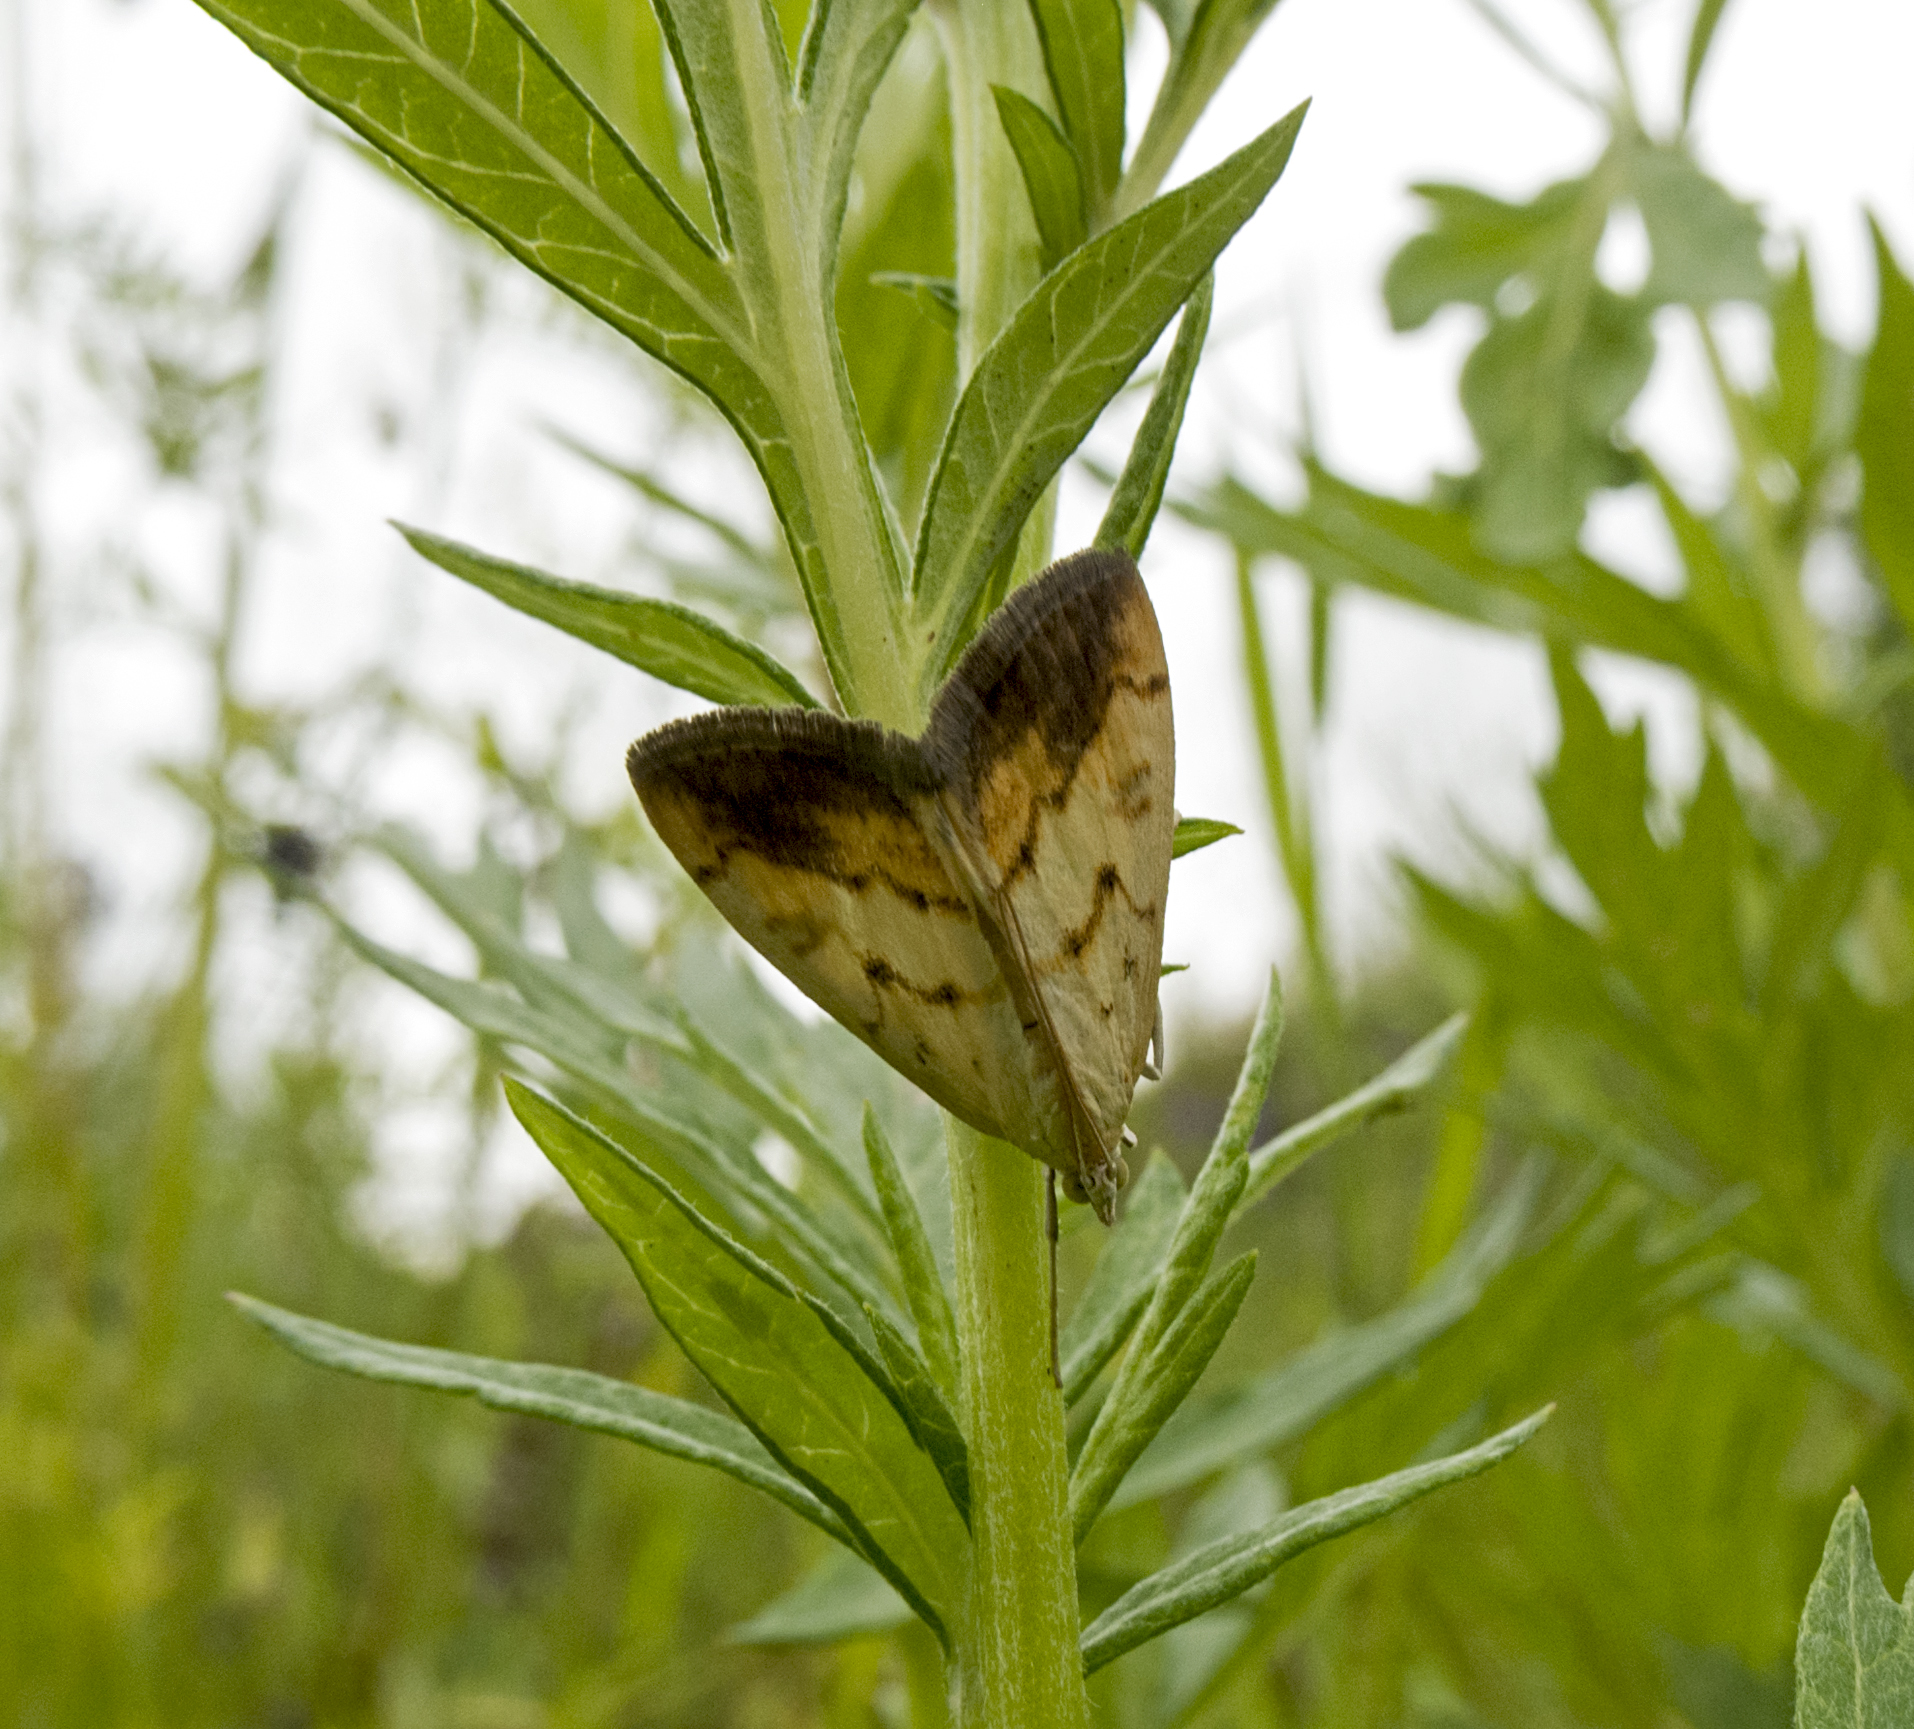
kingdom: Animalia
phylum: Arthropoda
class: Insecta
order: Lepidoptera
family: Crambidae
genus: Evergestis
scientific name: Evergestis extimalis
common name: Marbled yellow pearl
